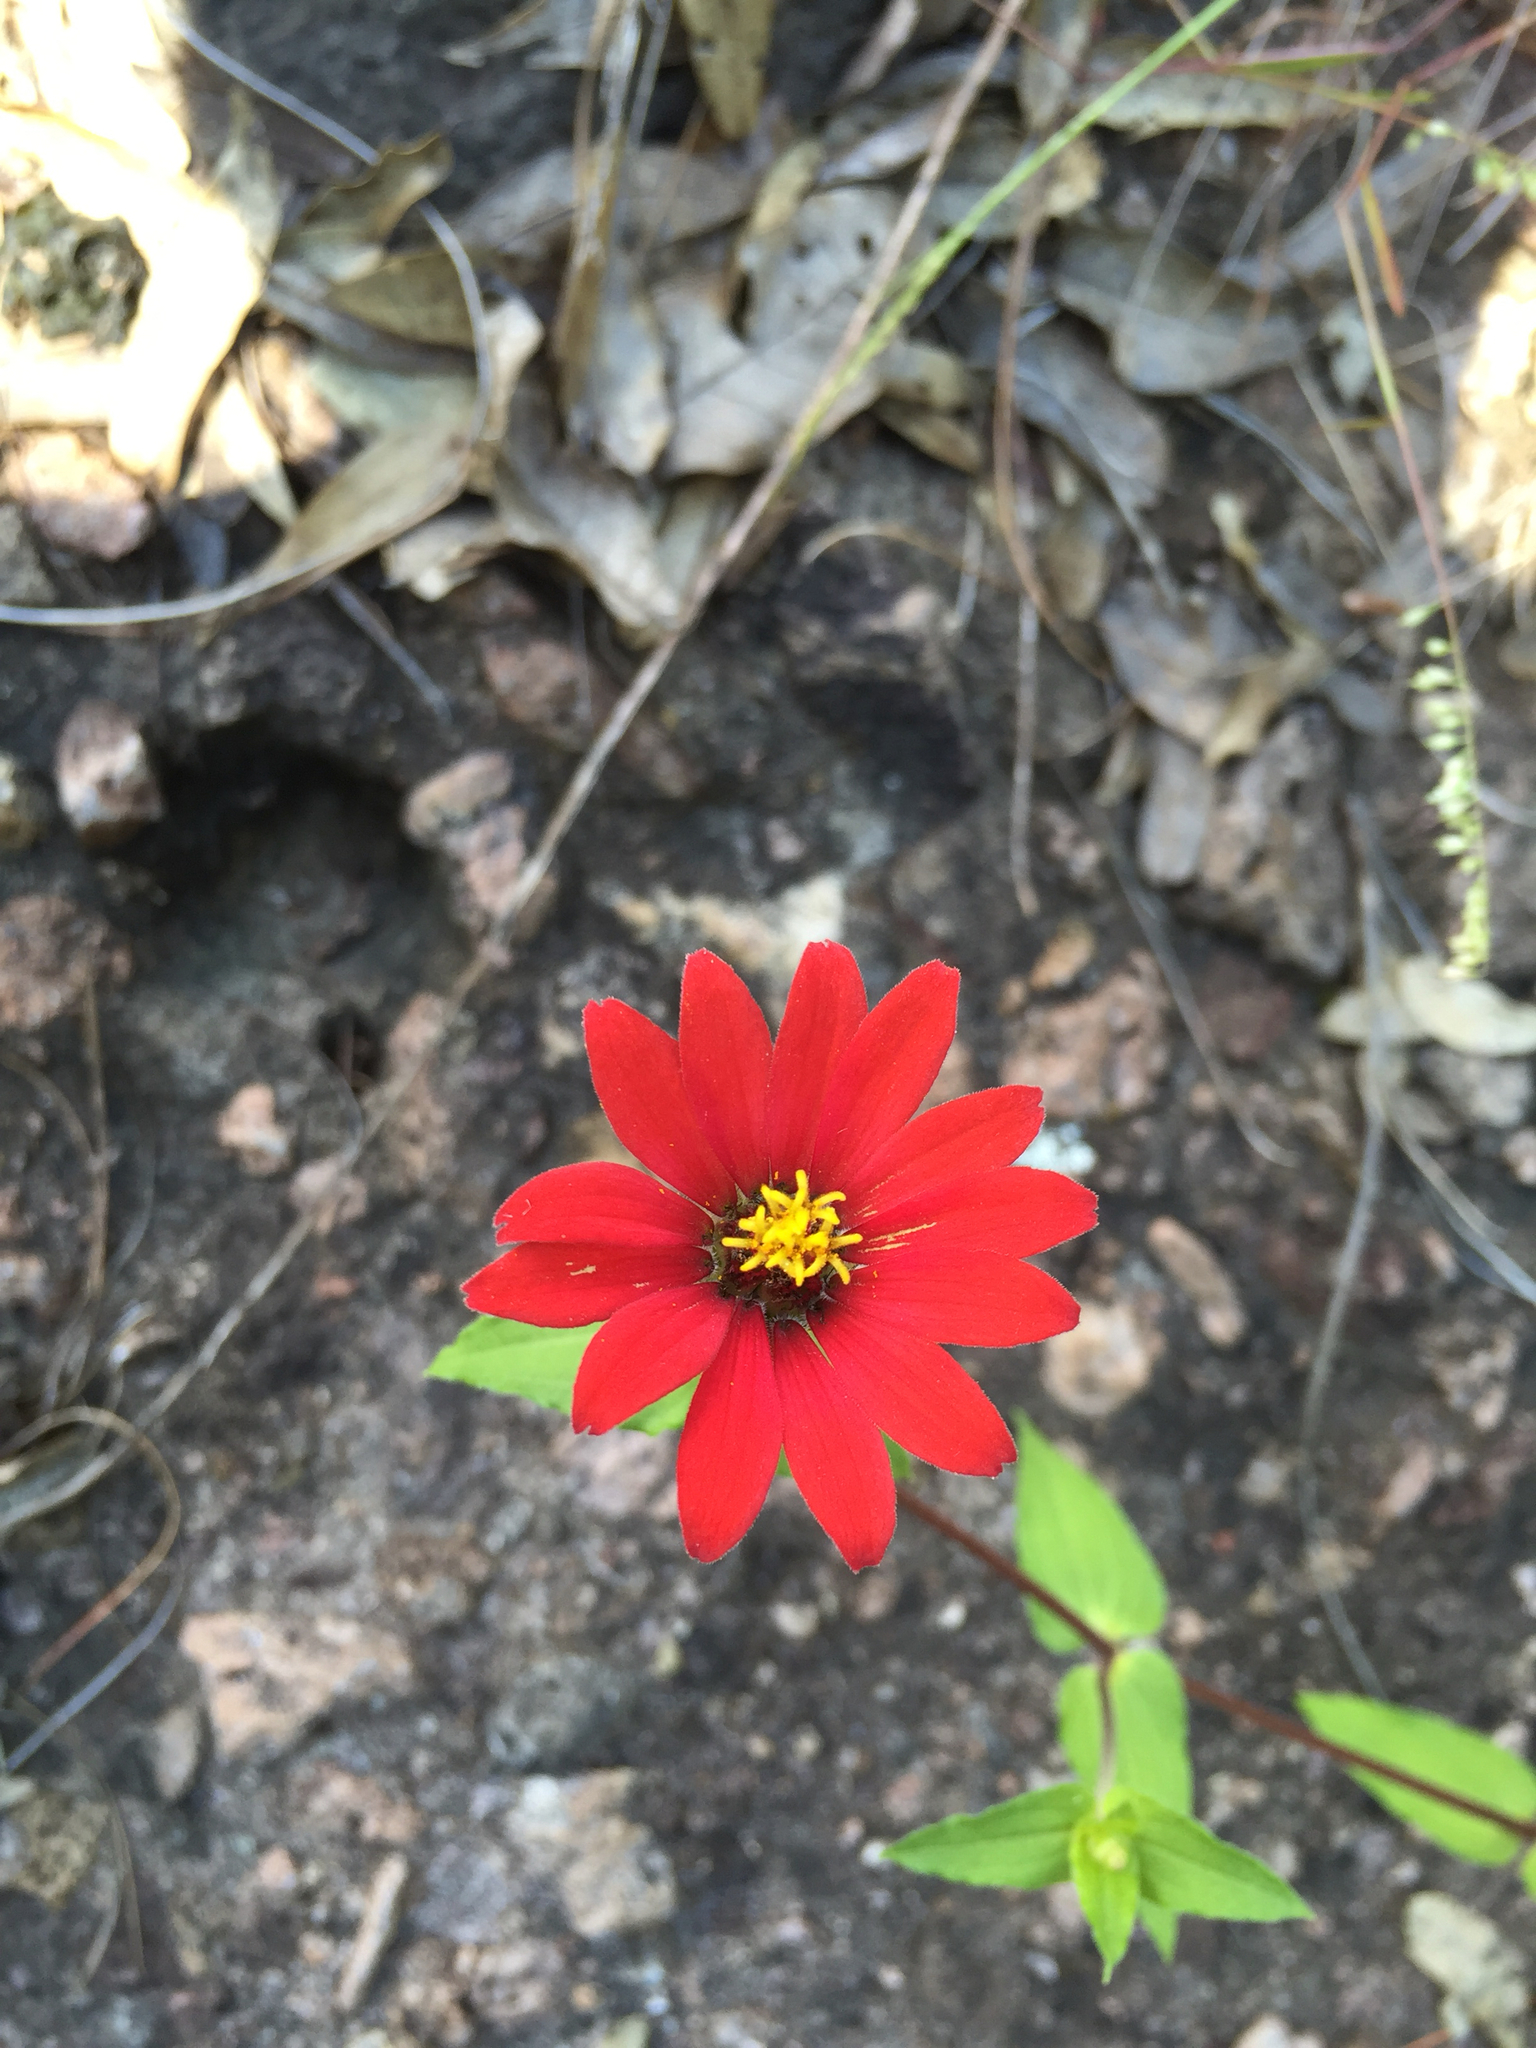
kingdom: Plantae
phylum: Tracheophyta
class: Magnoliopsida
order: Asterales
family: Asteraceae
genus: Zinnia
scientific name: Zinnia peruviana
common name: Peruvian zinnia
